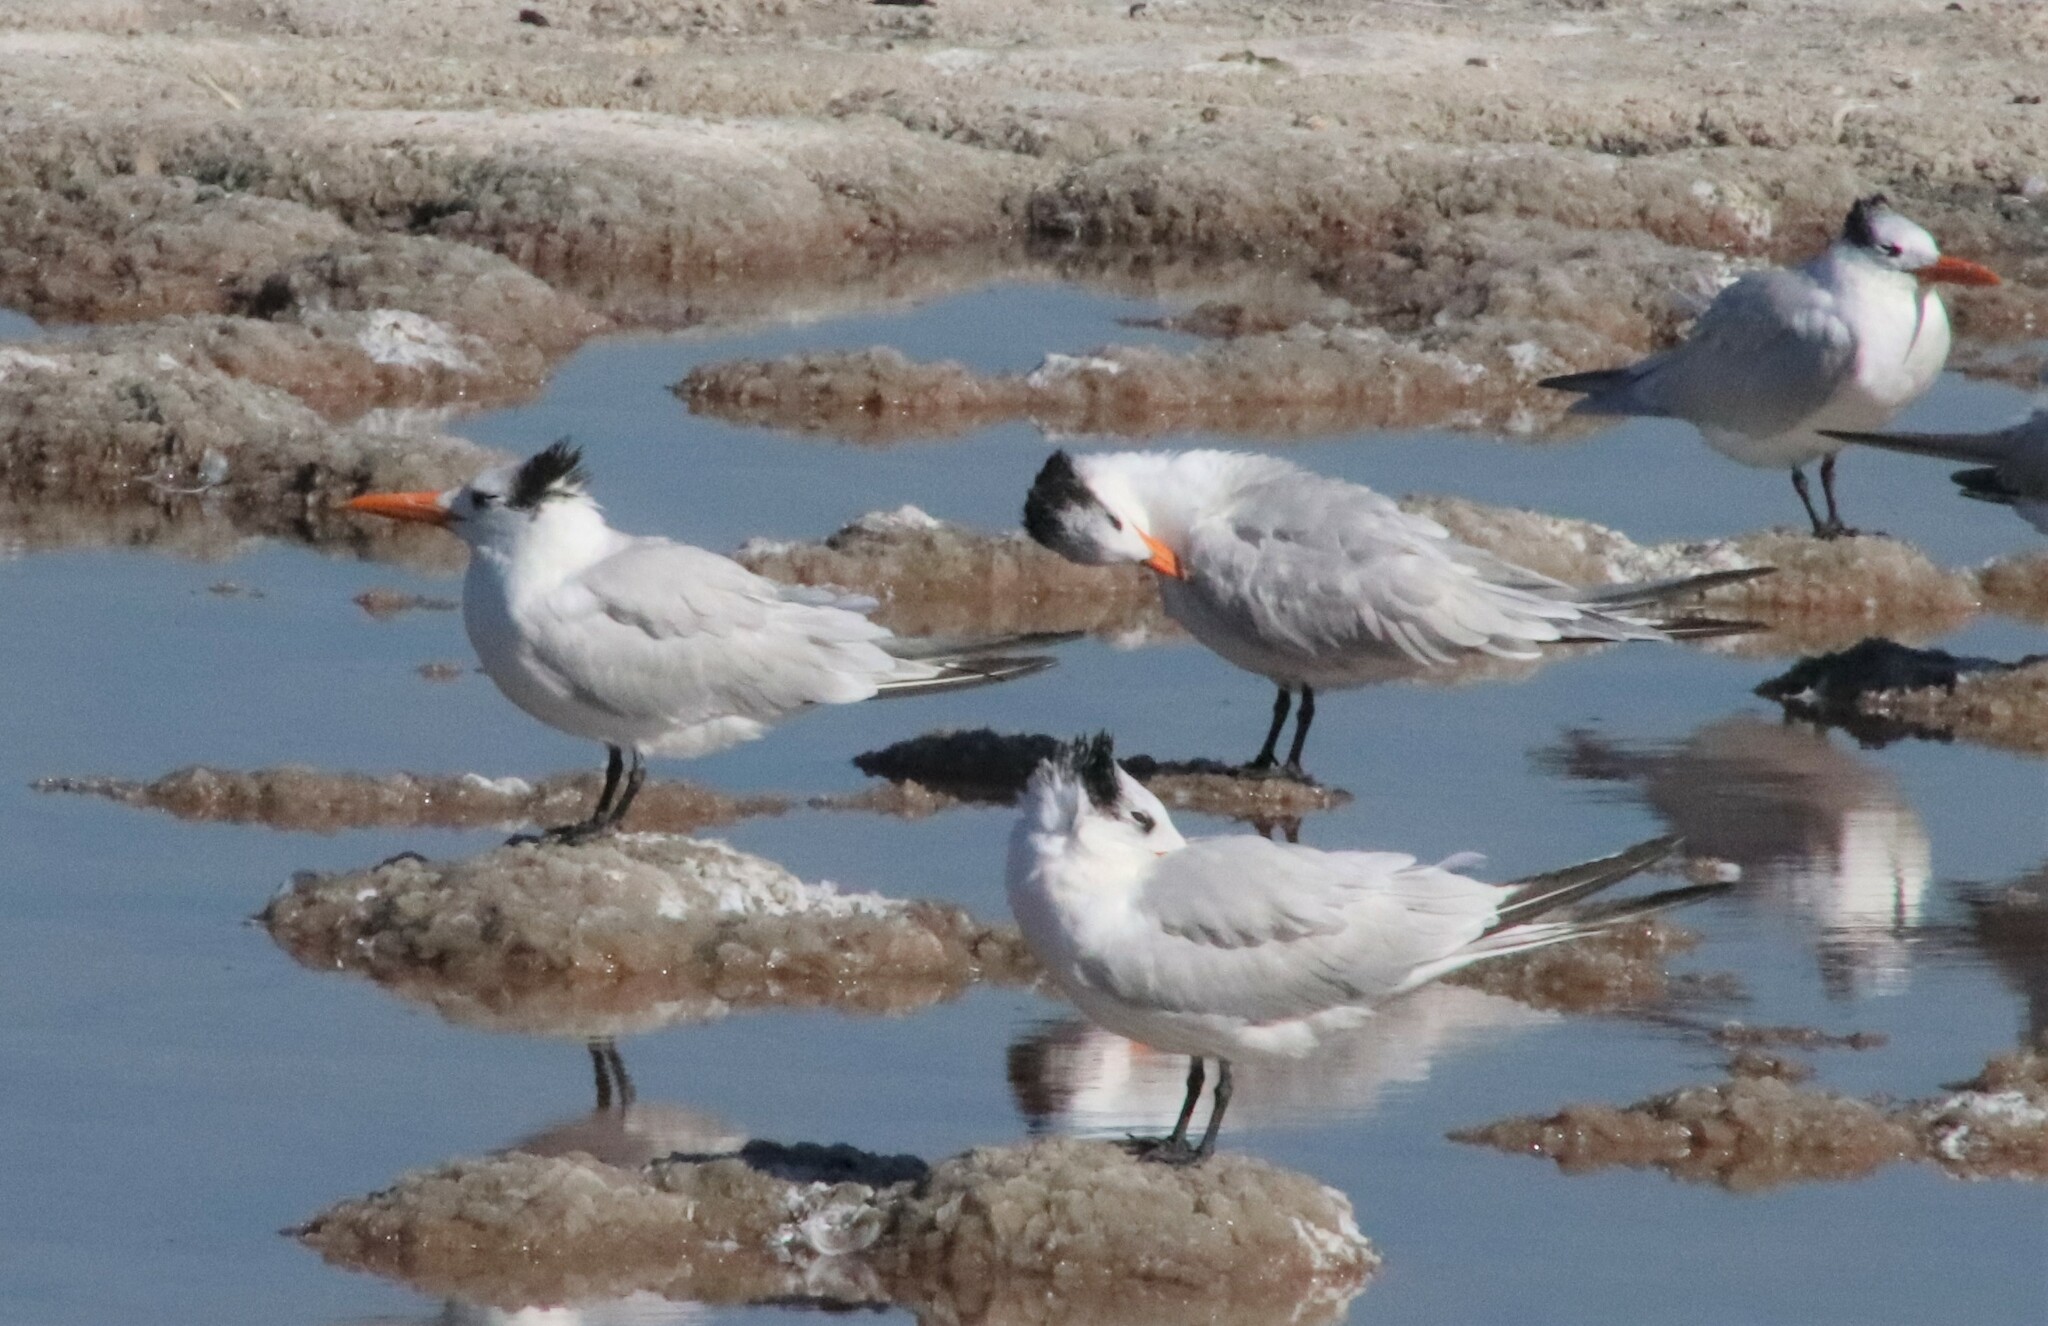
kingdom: Animalia
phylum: Chordata
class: Aves
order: Charadriiformes
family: Laridae
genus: Thalasseus
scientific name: Thalasseus maximus
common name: Royal tern
